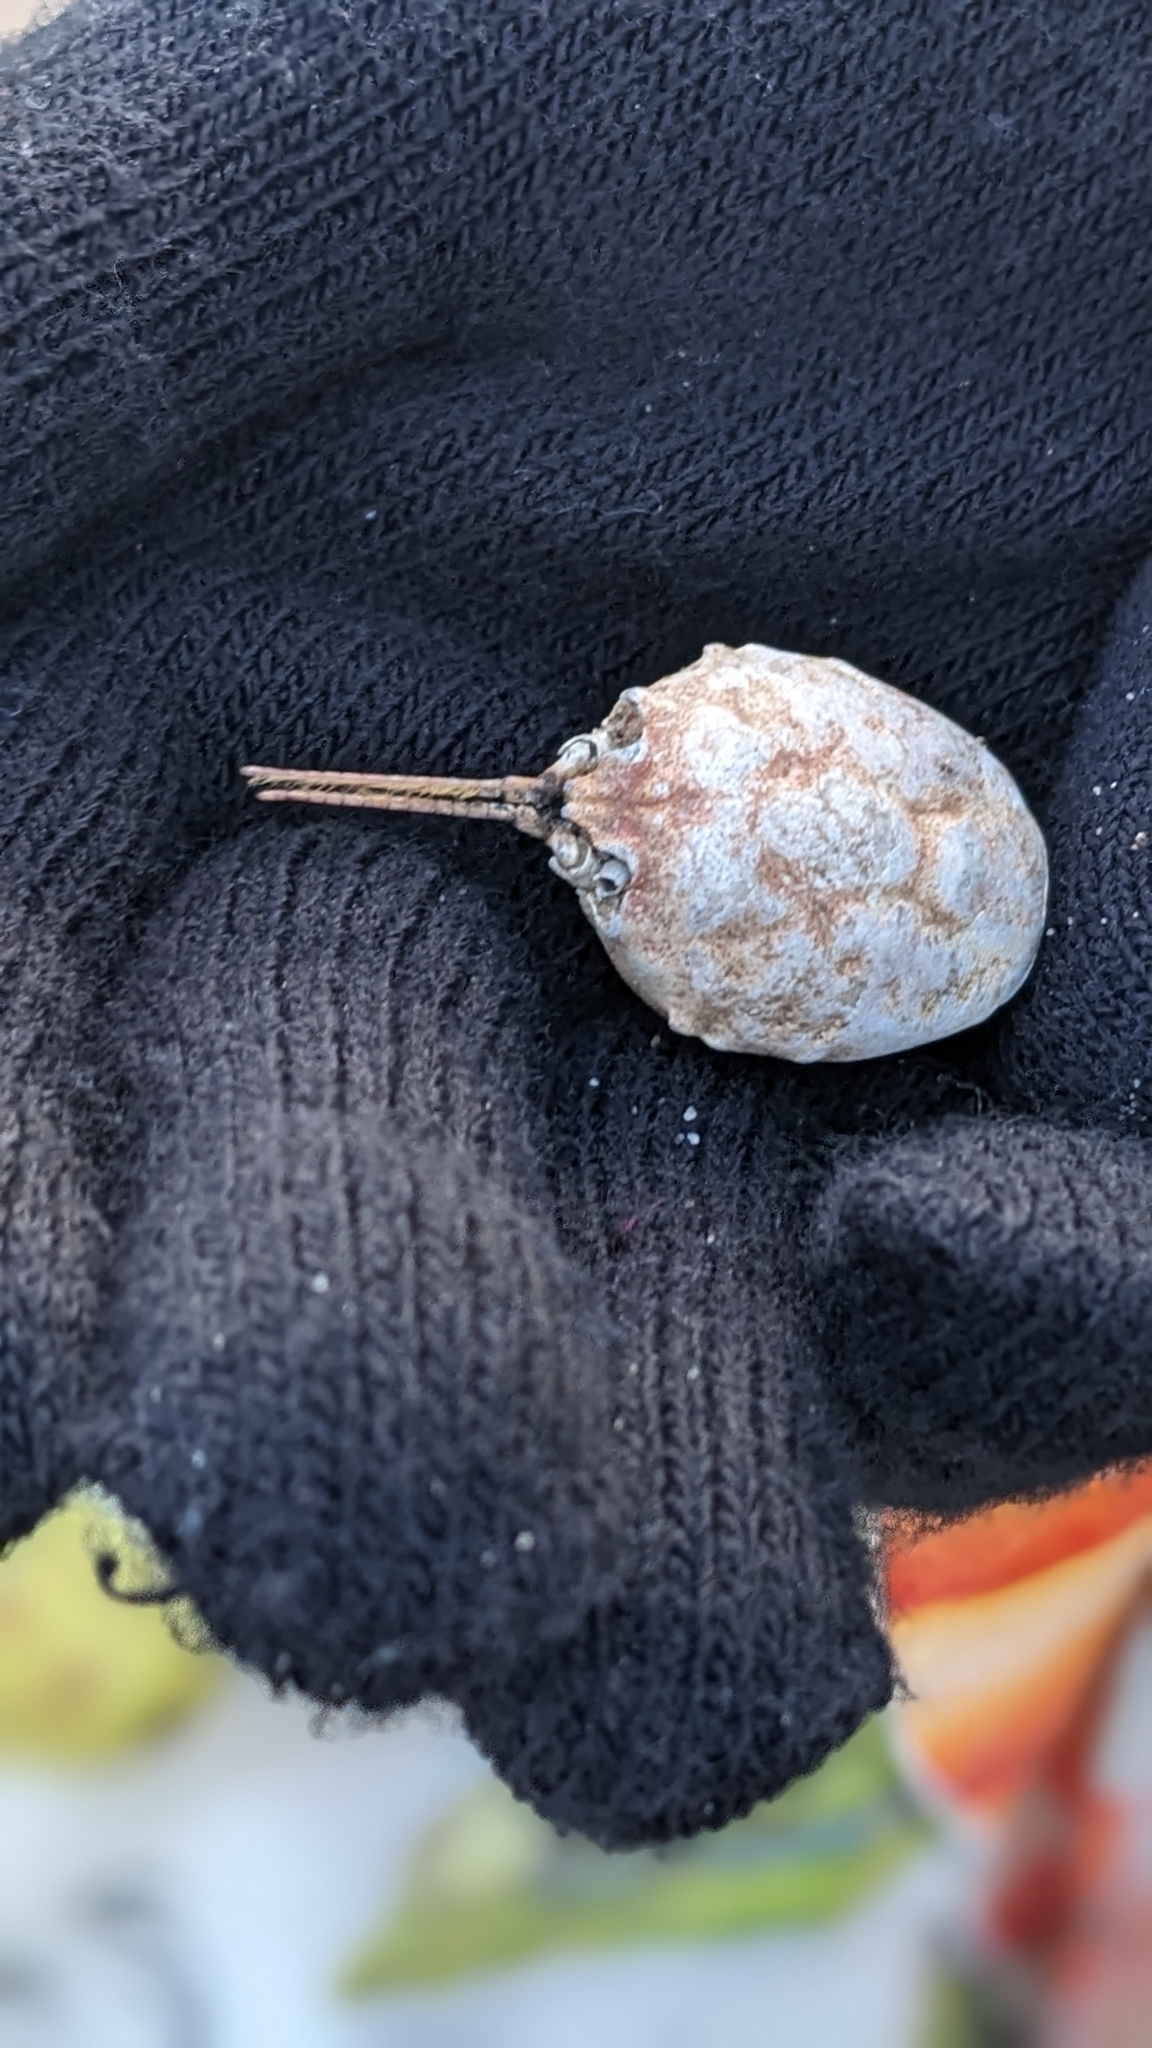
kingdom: Animalia
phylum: Arthropoda
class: Malacostraca
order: Decapoda
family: Corystidae
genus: Corystes
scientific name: Corystes cassivelaunus
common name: Masked crab
